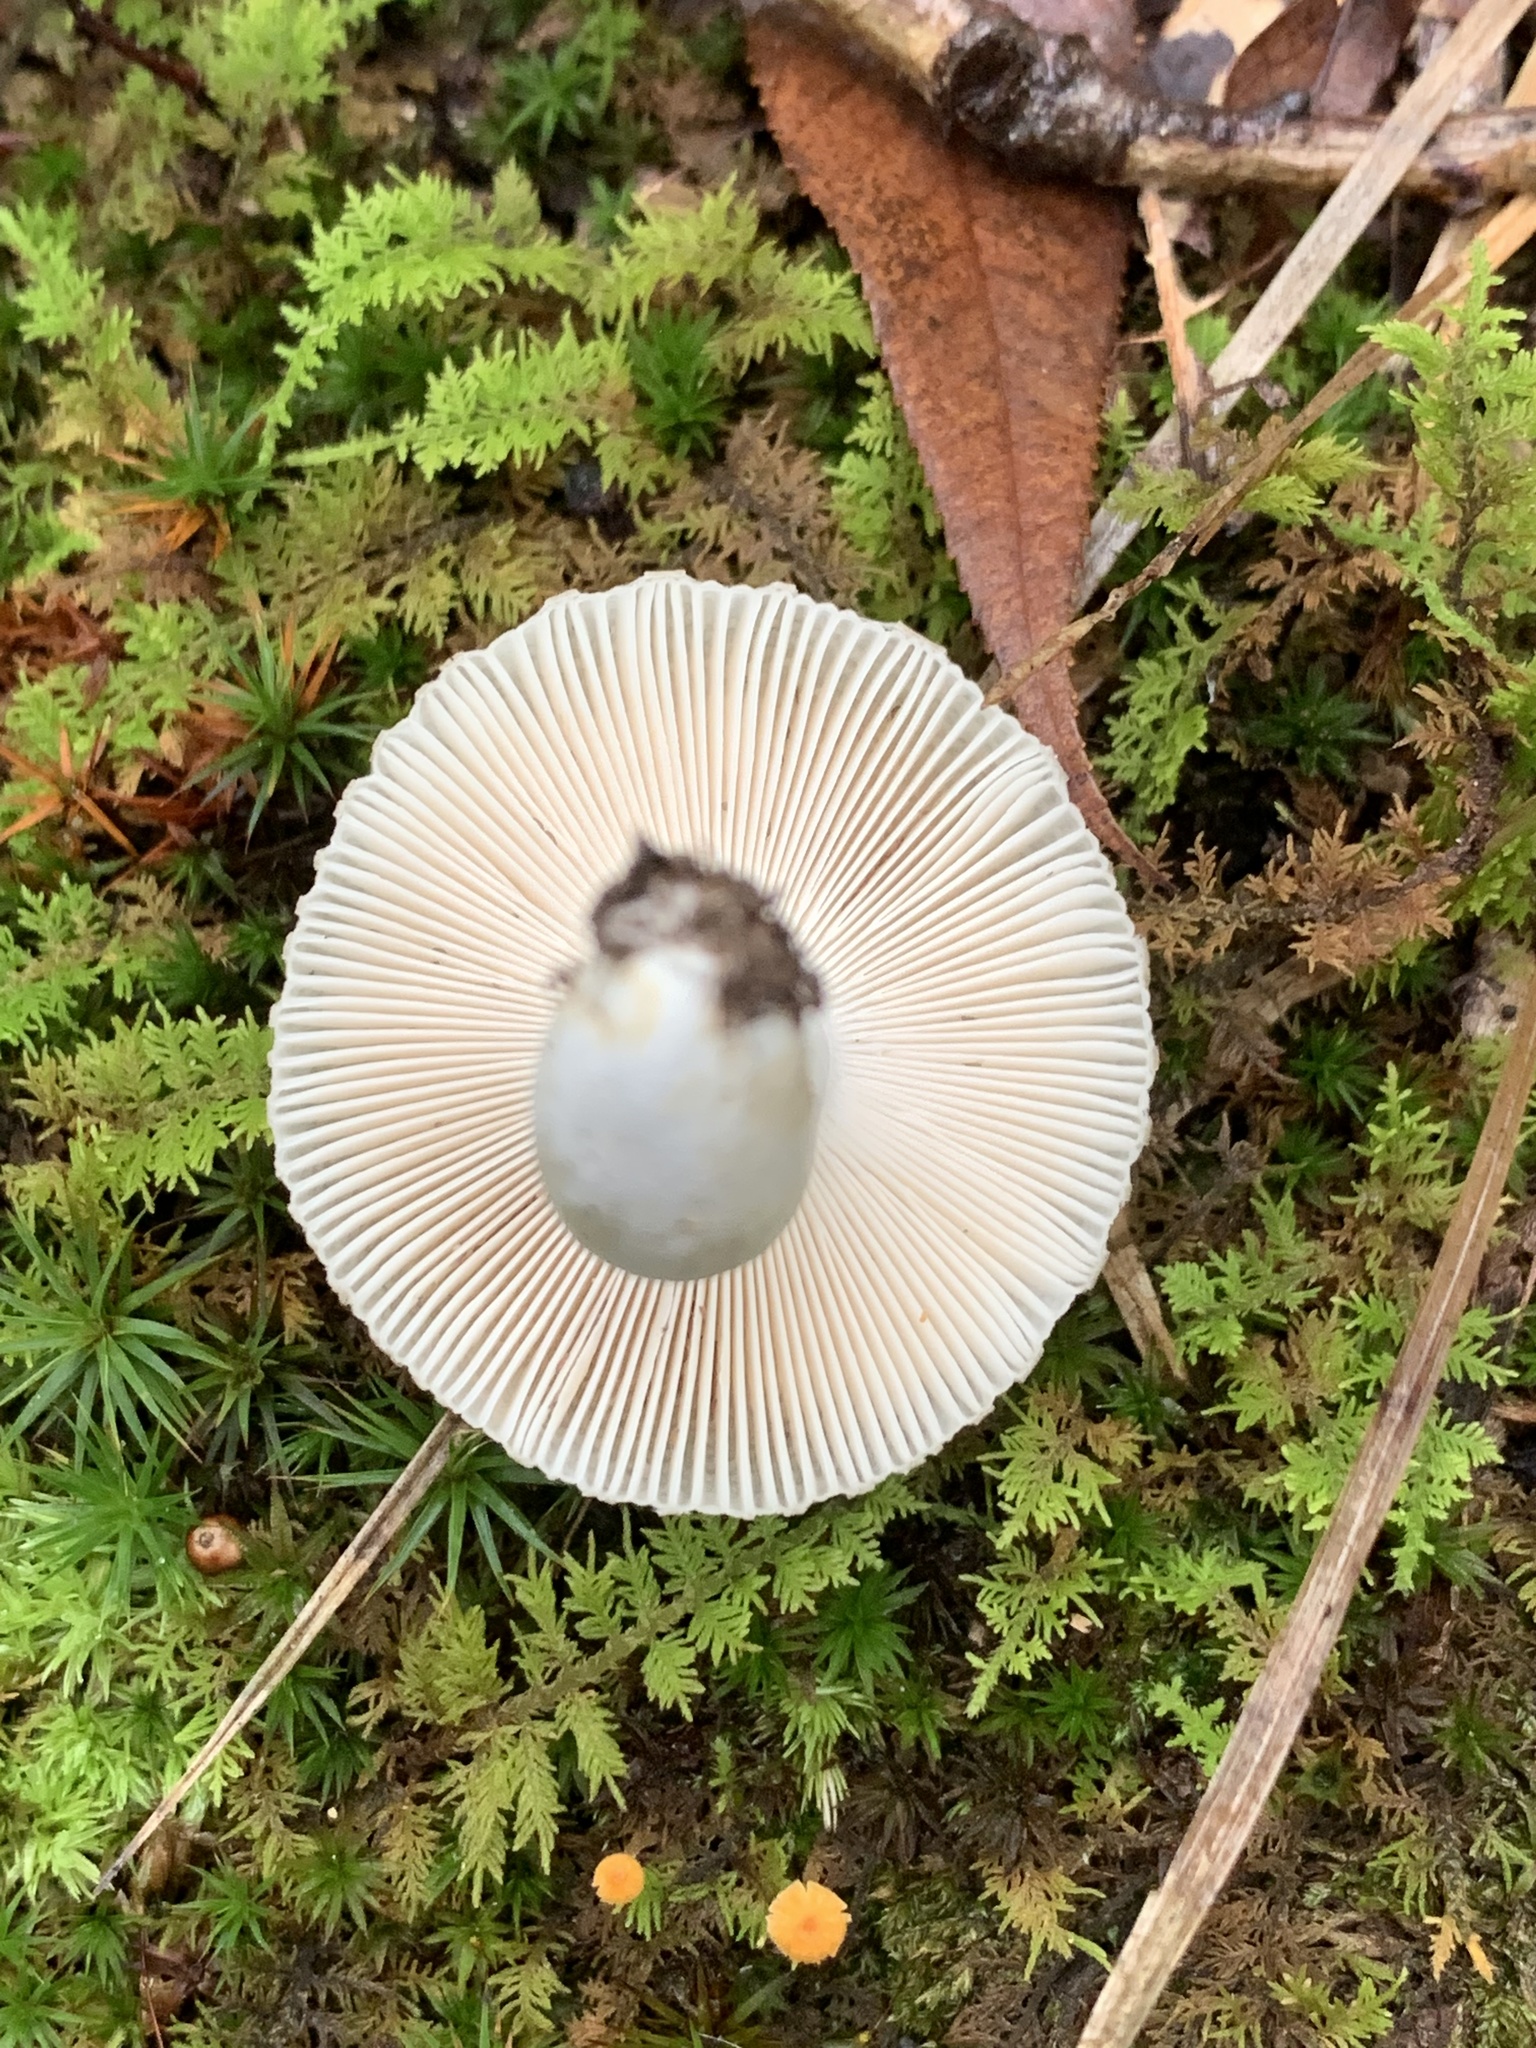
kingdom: Fungi
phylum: Basidiomycota
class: Agaricomycetes
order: Russulales
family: Russulaceae
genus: Russula
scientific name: Russula virescens
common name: Greencracked brittlegill
